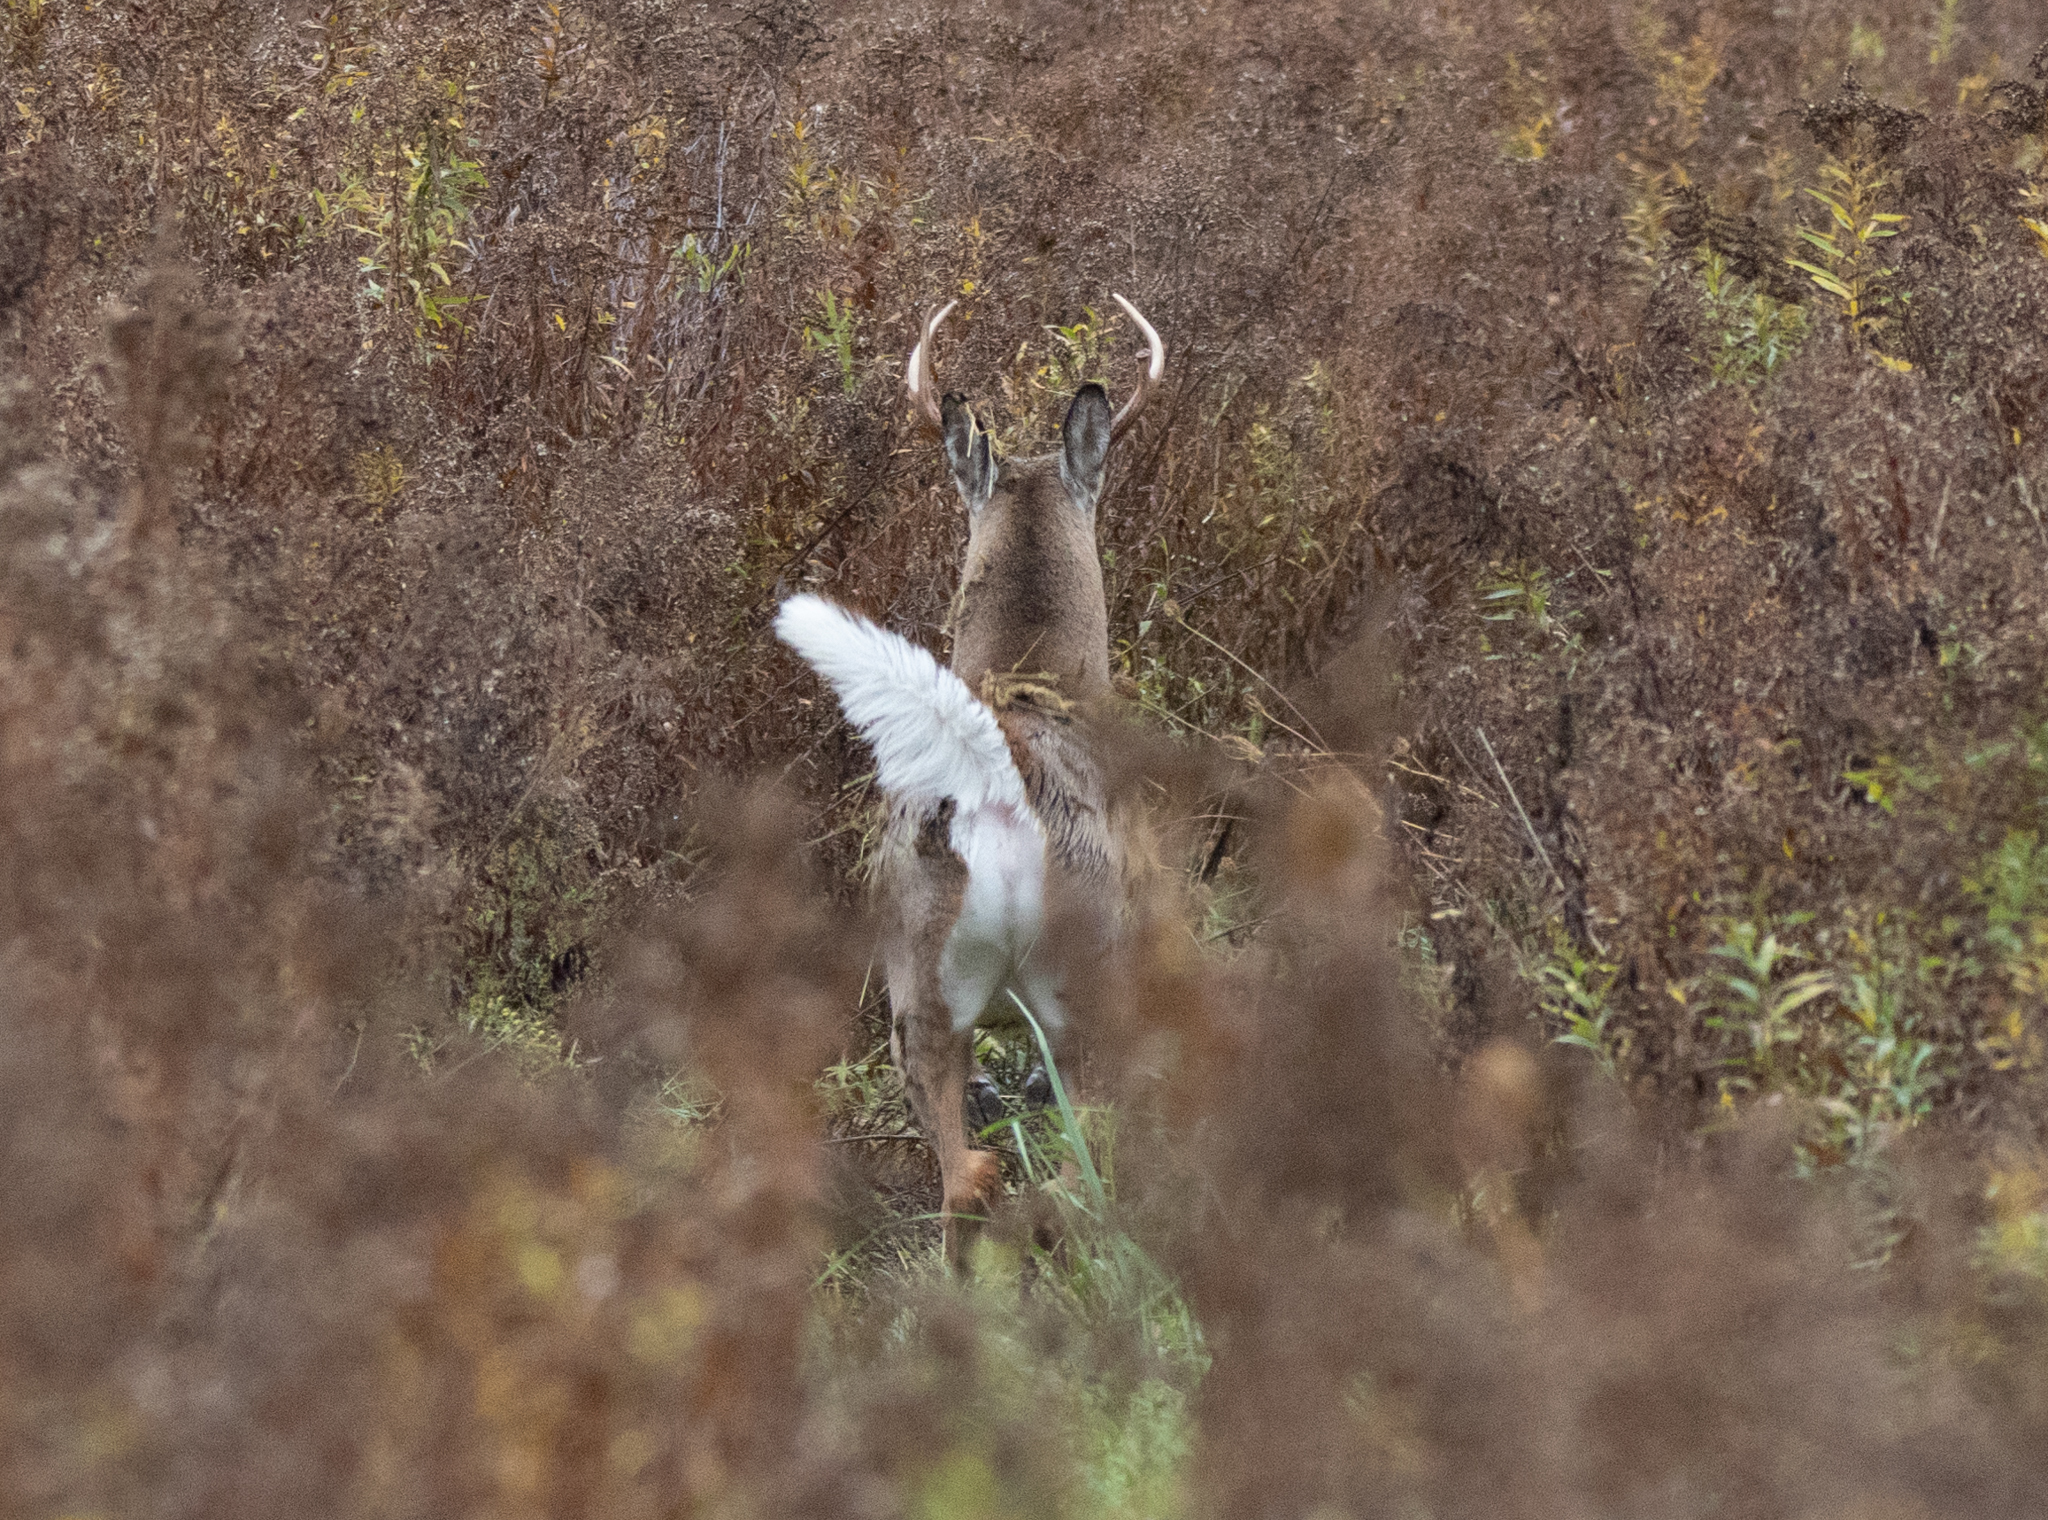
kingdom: Animalia
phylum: Chordata
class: Mammalia
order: Artiodactyla
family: Cervidae
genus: Odocoileus
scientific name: Odocoileus virginianus
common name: White-tailed deer
